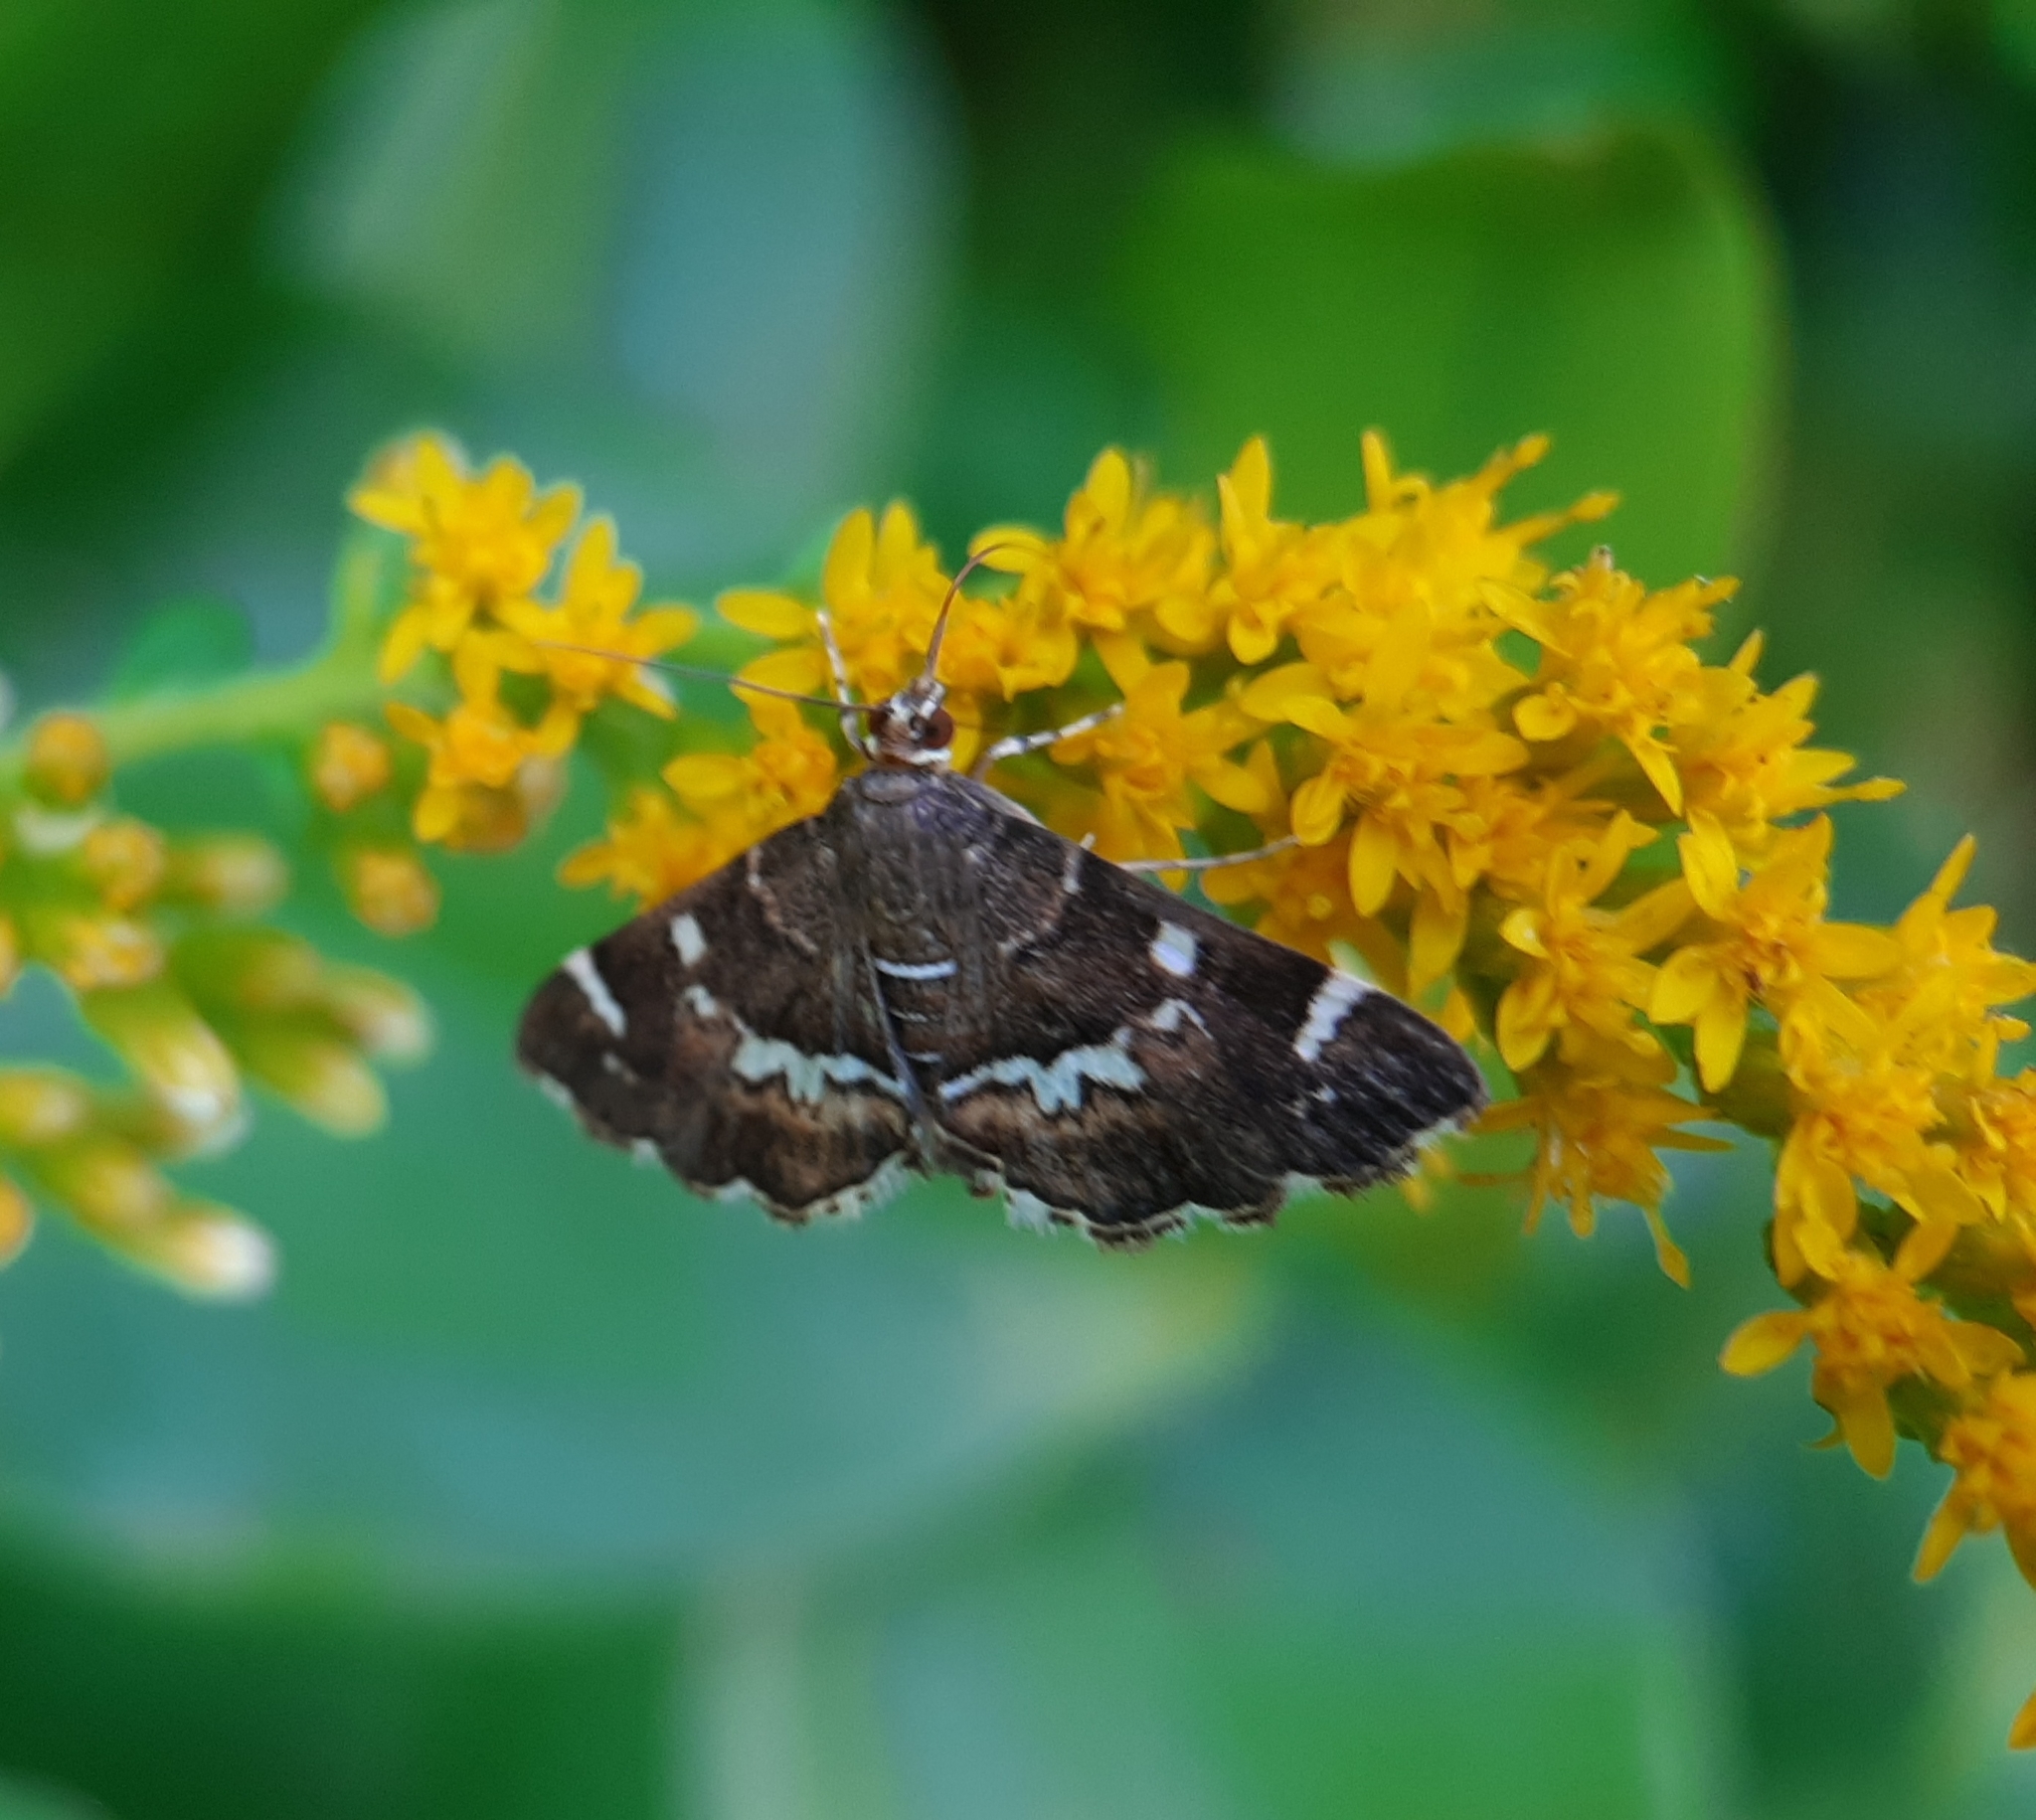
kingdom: Animalia
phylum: Arthropoda
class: Insecta
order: Lepidoptera
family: Crambidae
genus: Hymenia
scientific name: Hymenia perspectalis
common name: Spotted beet webworm
